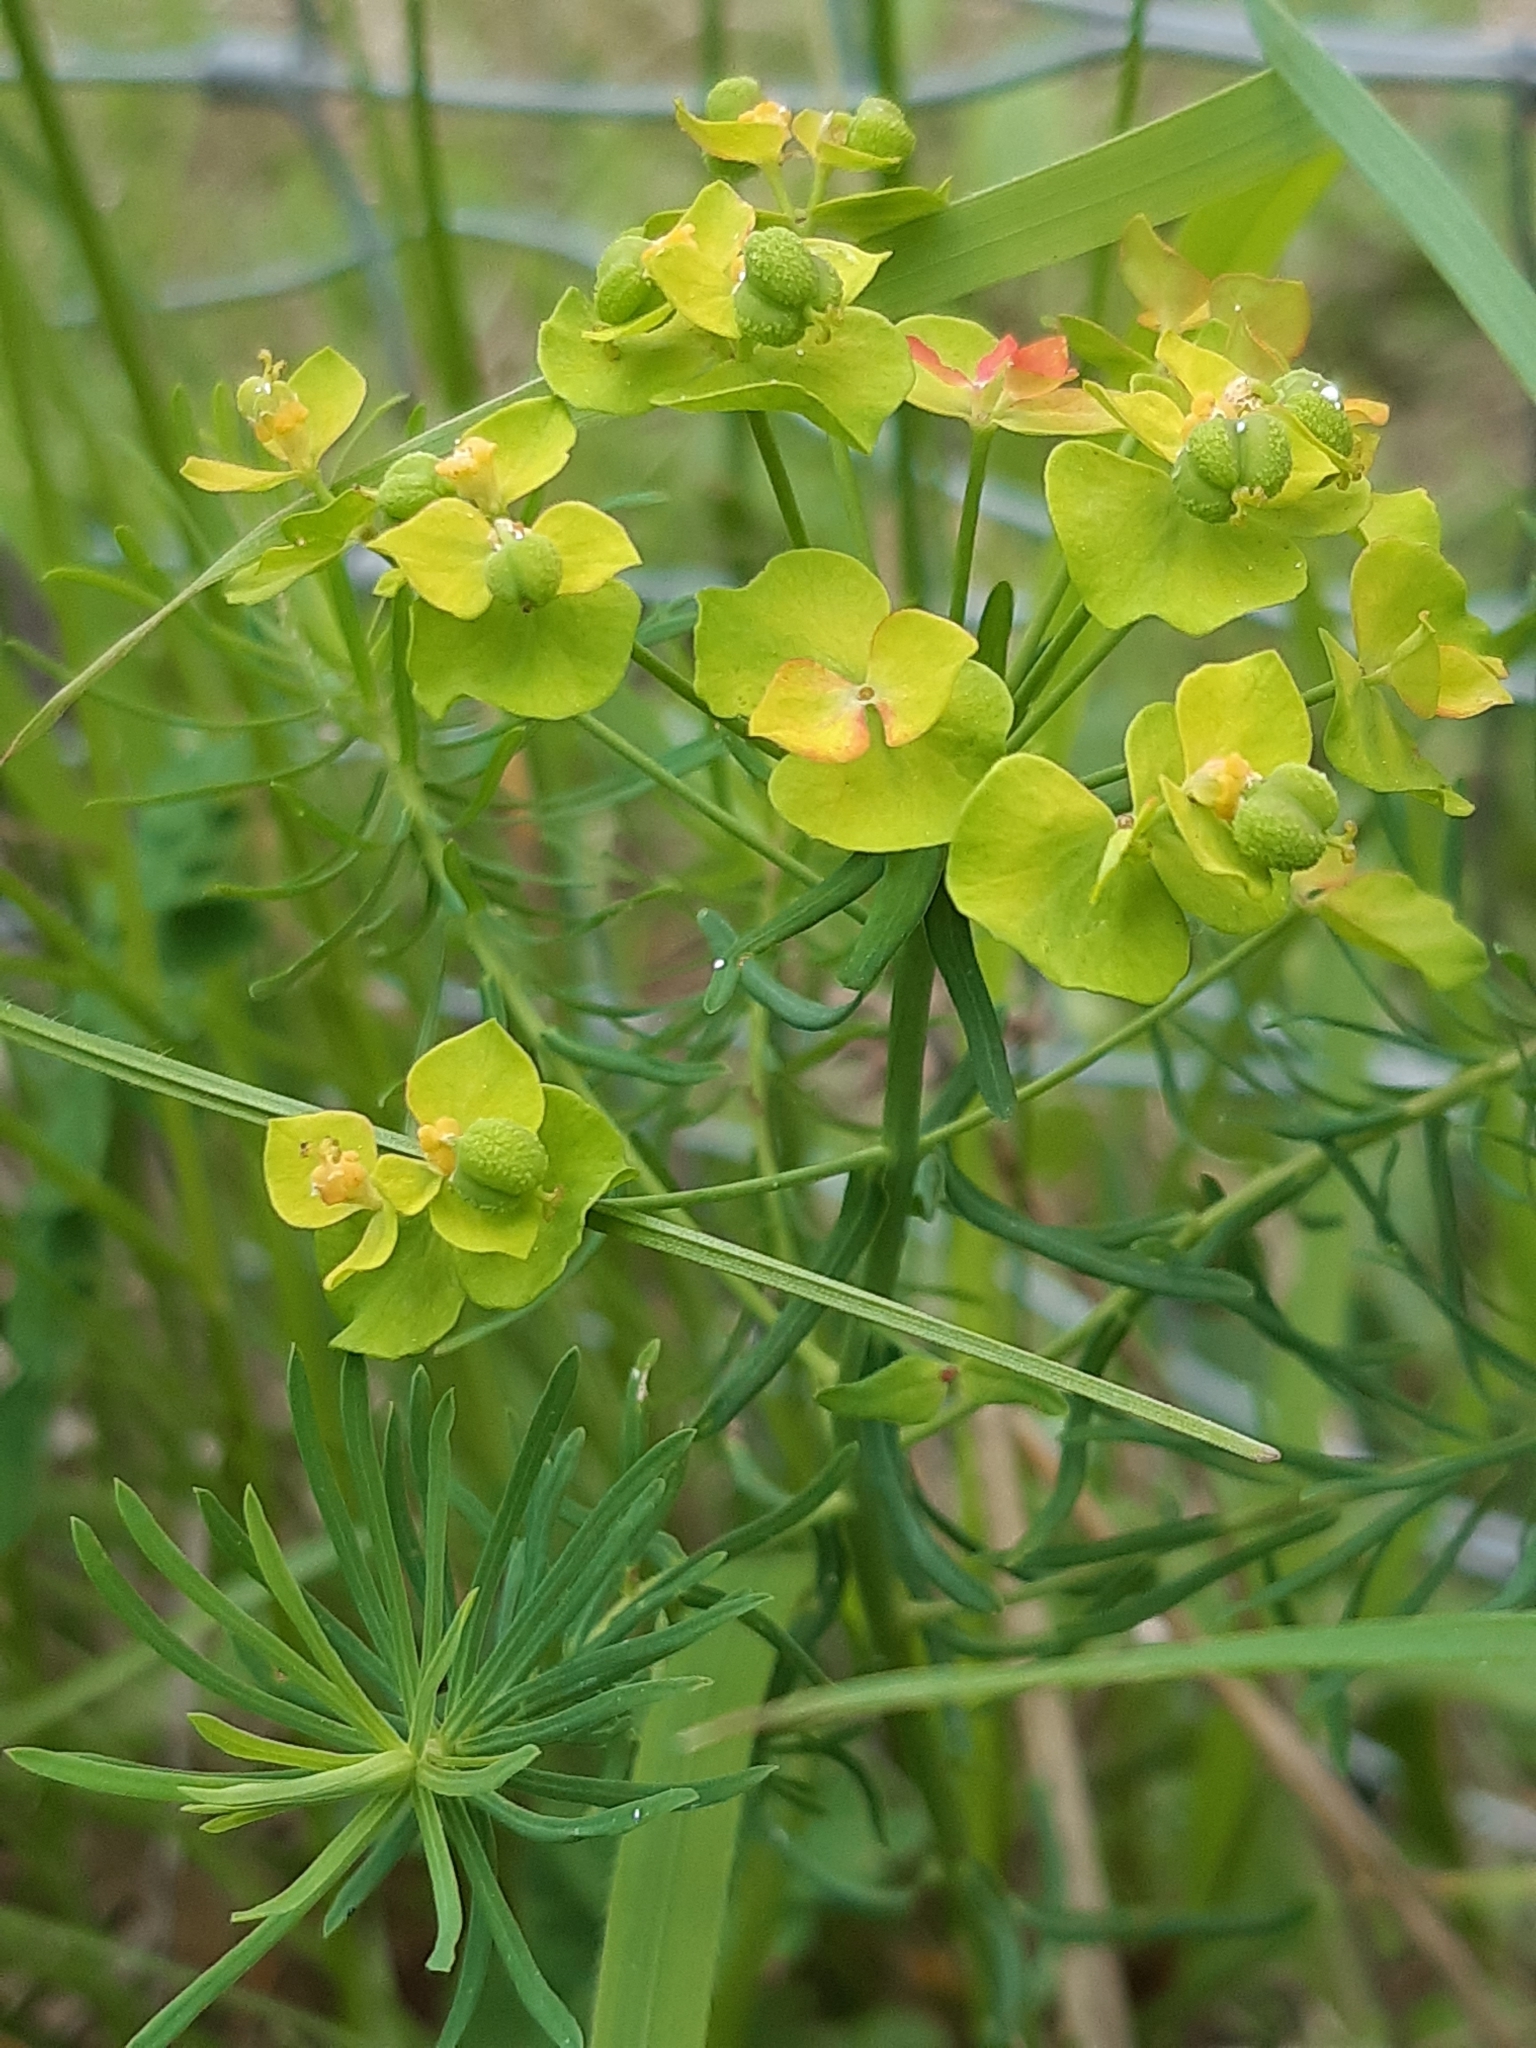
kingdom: Plantae
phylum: Tracheophyta
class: Magnoliopsida
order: Malpighiales
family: Euphorbiaceae
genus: Euphorbia
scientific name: Euphorbia cyparissias
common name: Cypress spurge
